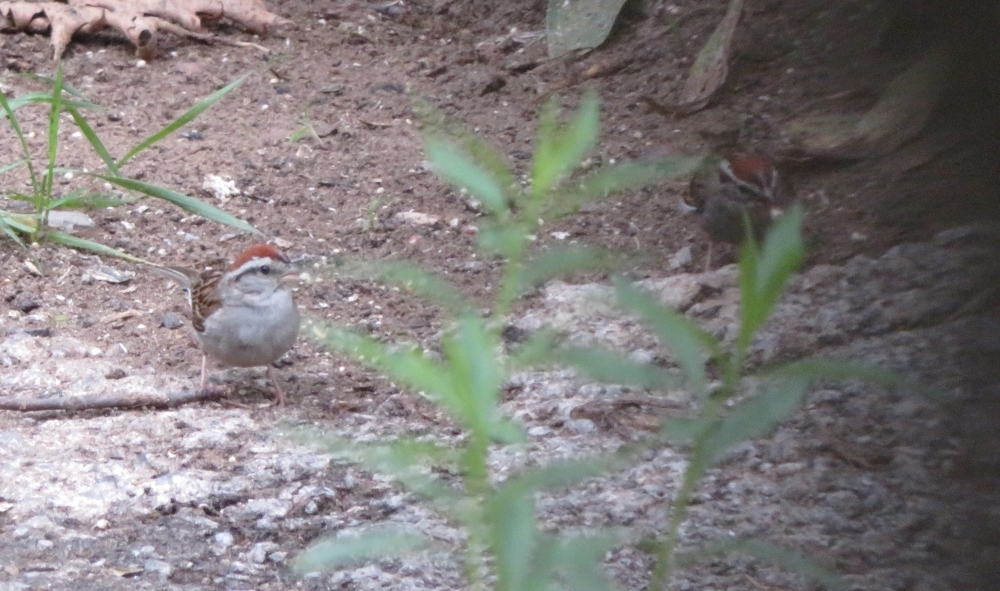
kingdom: Animalia
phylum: Chordata
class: Aves
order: Passeriformes
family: Passerellidae
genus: Spizella
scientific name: Spizella passerina
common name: Chipping sparrow
